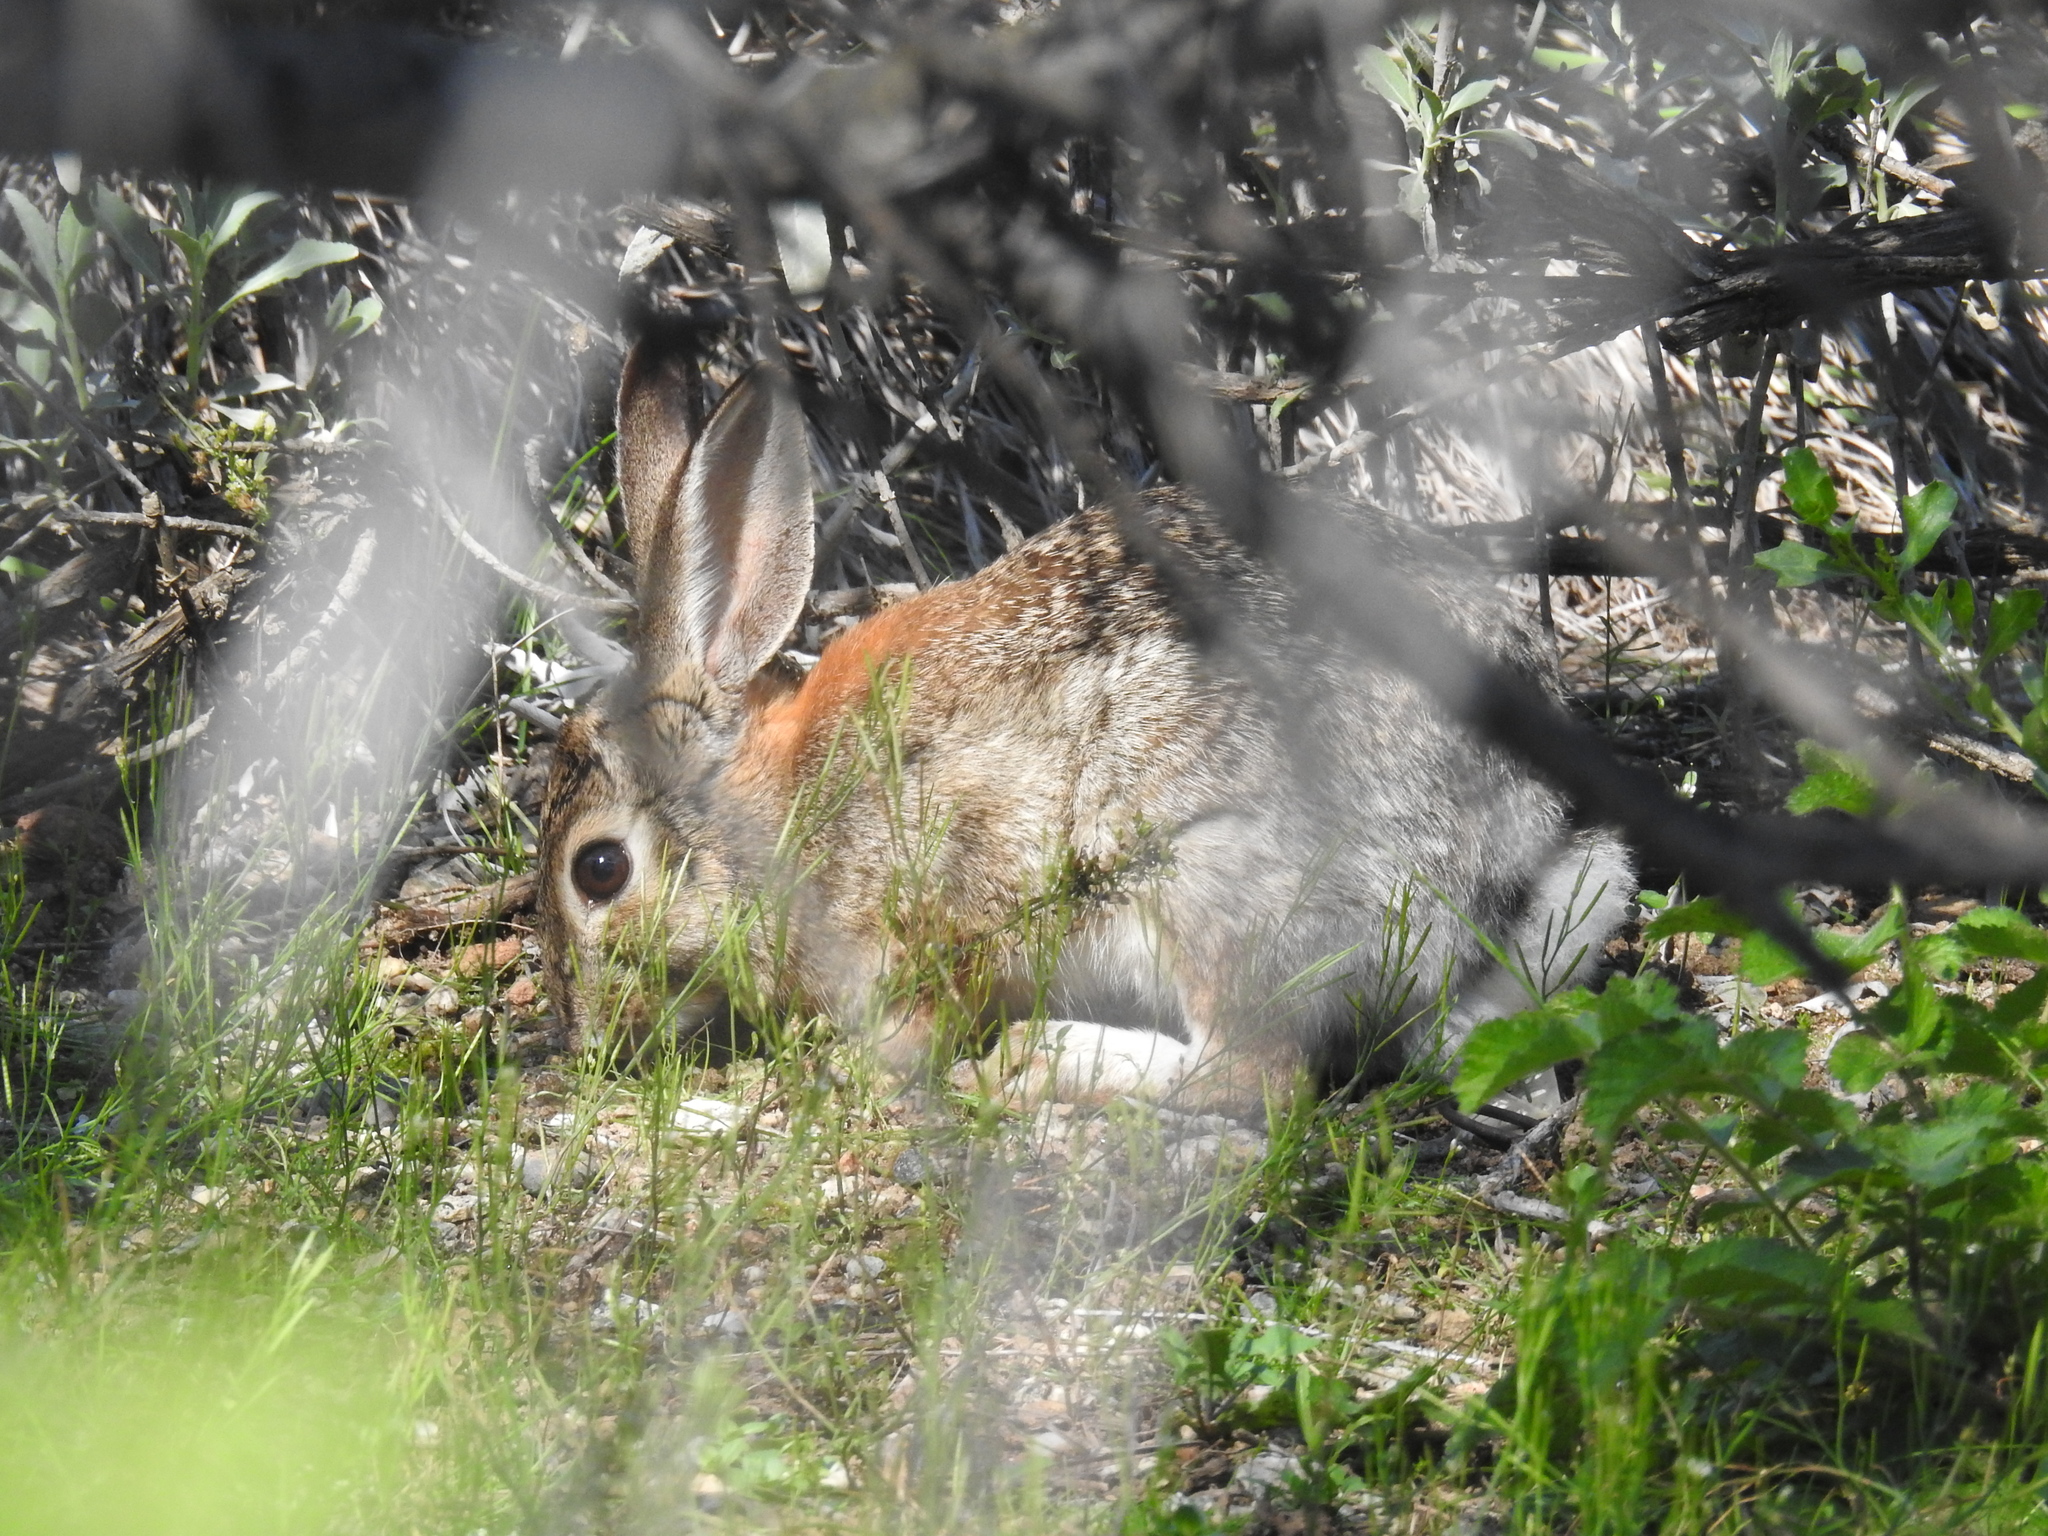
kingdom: Animalia
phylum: Chordata
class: Mammalia
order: Lagomorpha
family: Leporidae
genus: Sylvilagus
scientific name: Sylvilagus audubonii
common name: Desert cottontail
